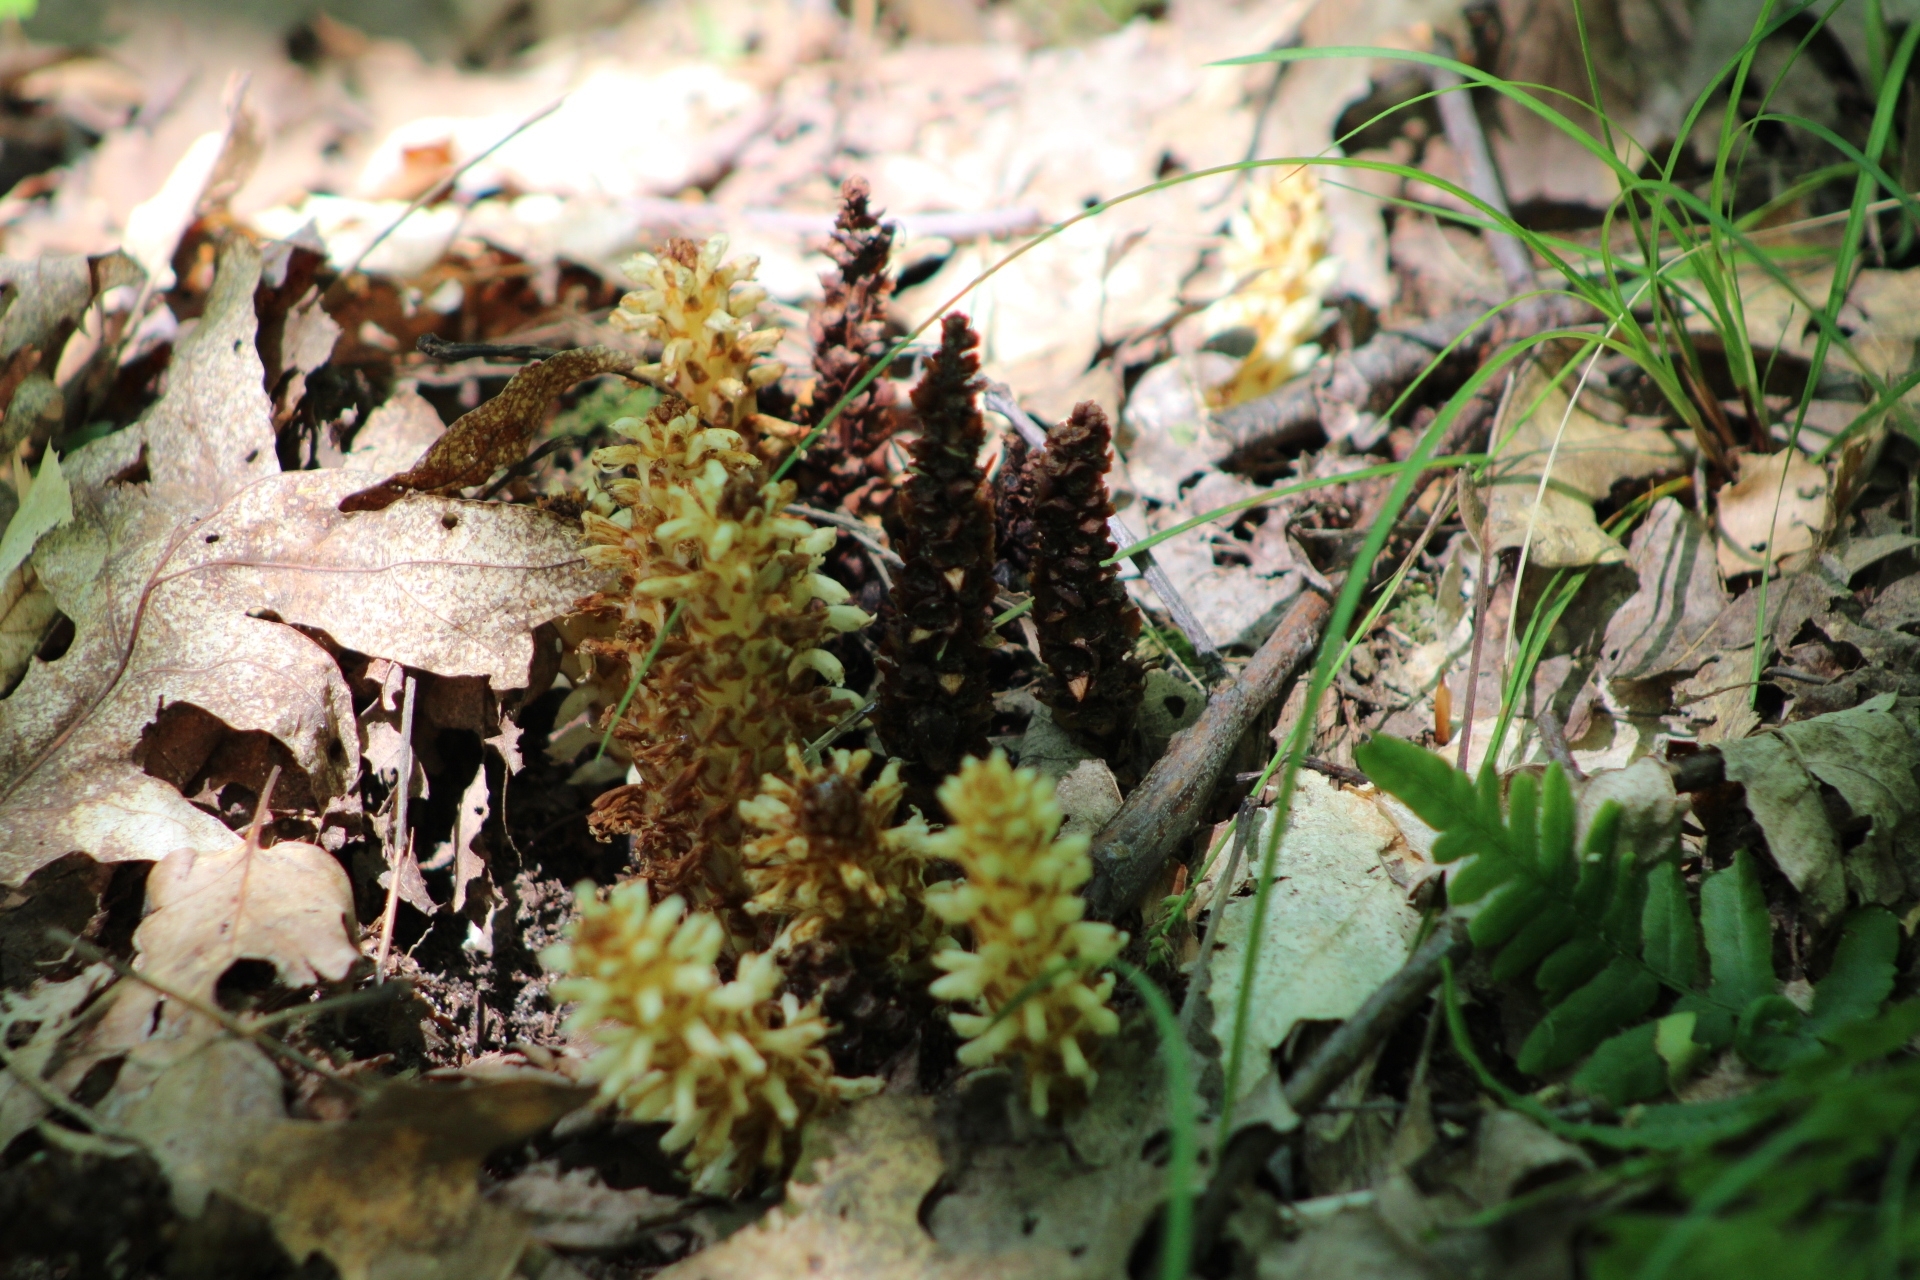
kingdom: Plantae
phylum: Tracheophyta
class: Magnoliopsida
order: Lamiales
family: Orobanchaceae
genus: Conopholis
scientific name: Conopholis americana
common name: American cancer-root
